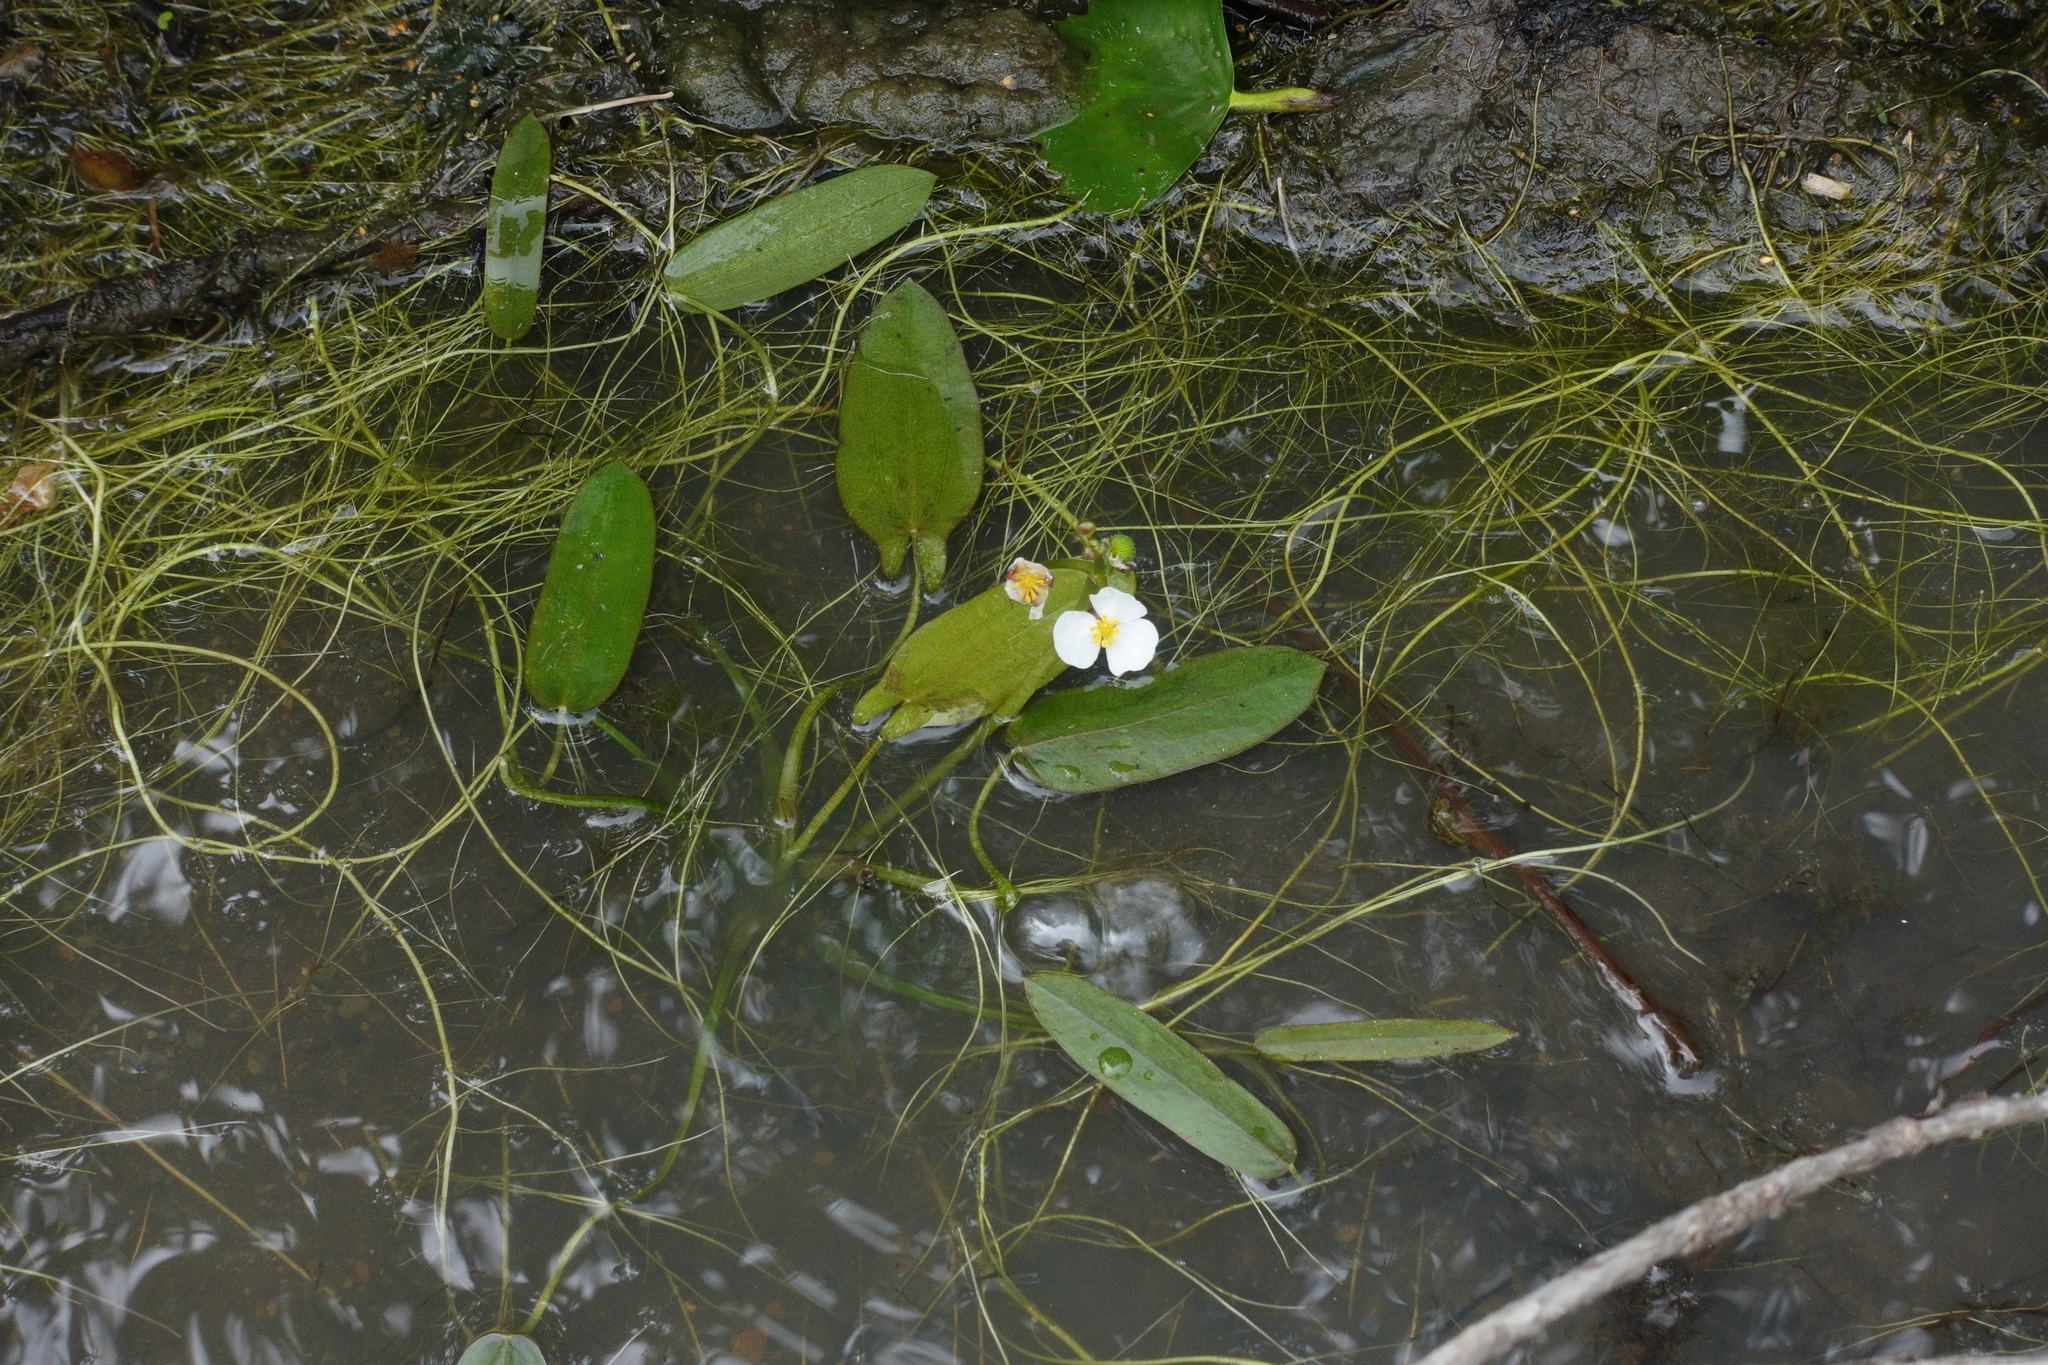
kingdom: Plantae
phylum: Tracheophyta
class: Liliopsida
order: Alismatales
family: Alismataceae
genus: Sagittaria
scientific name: Sagittaria natans
